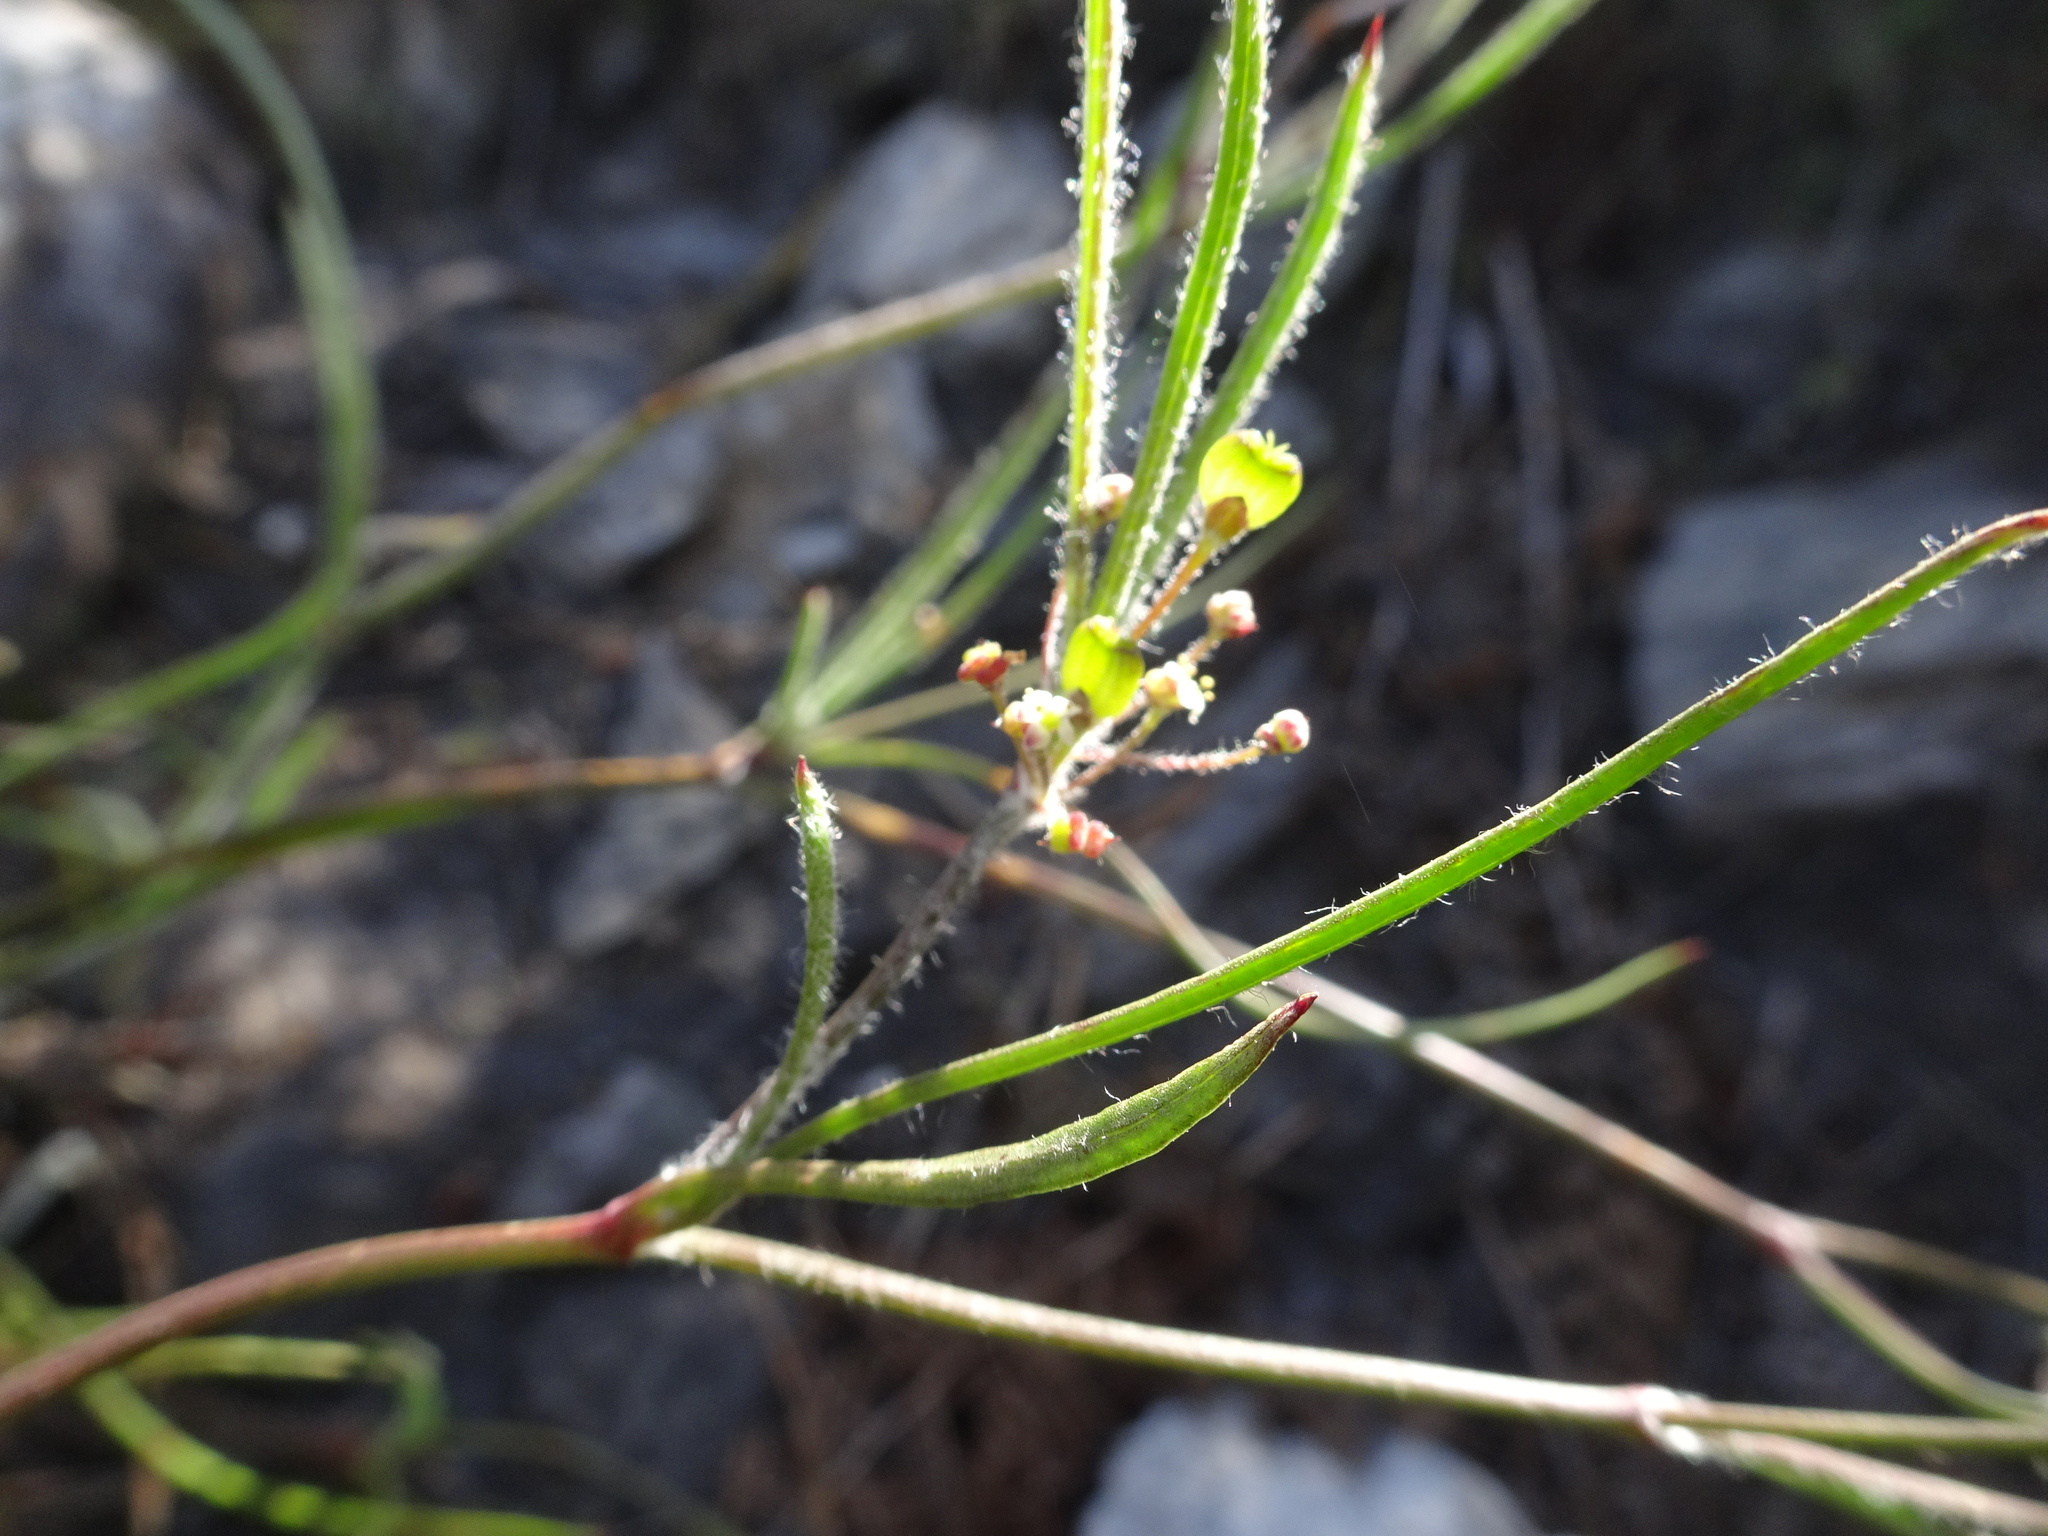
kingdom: Plantae
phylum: Tracheophyta
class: Magnoliopsida
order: Apiales
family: Apiaceae
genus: Centella
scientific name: Centella virgata
